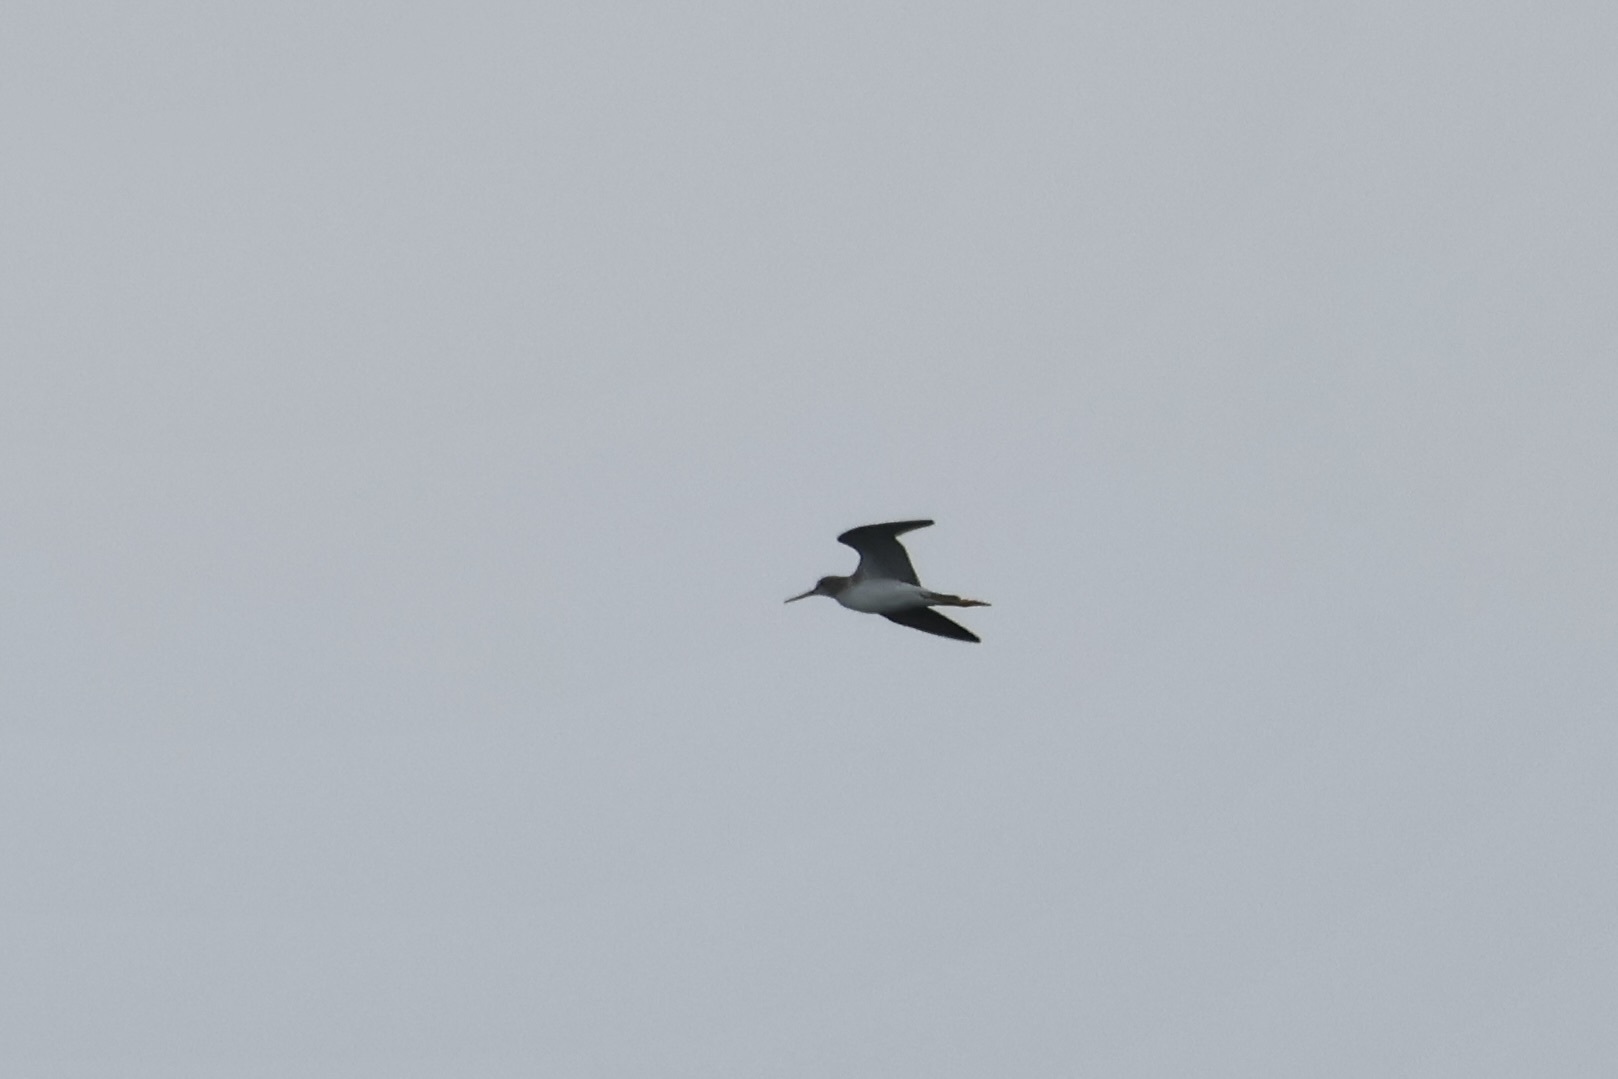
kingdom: Animalia
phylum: Chordata
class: Aves
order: Charadriiformes
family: Scolopacidae
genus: Tringa
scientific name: Tringa melanoleuca
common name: Greater yellowlegs
